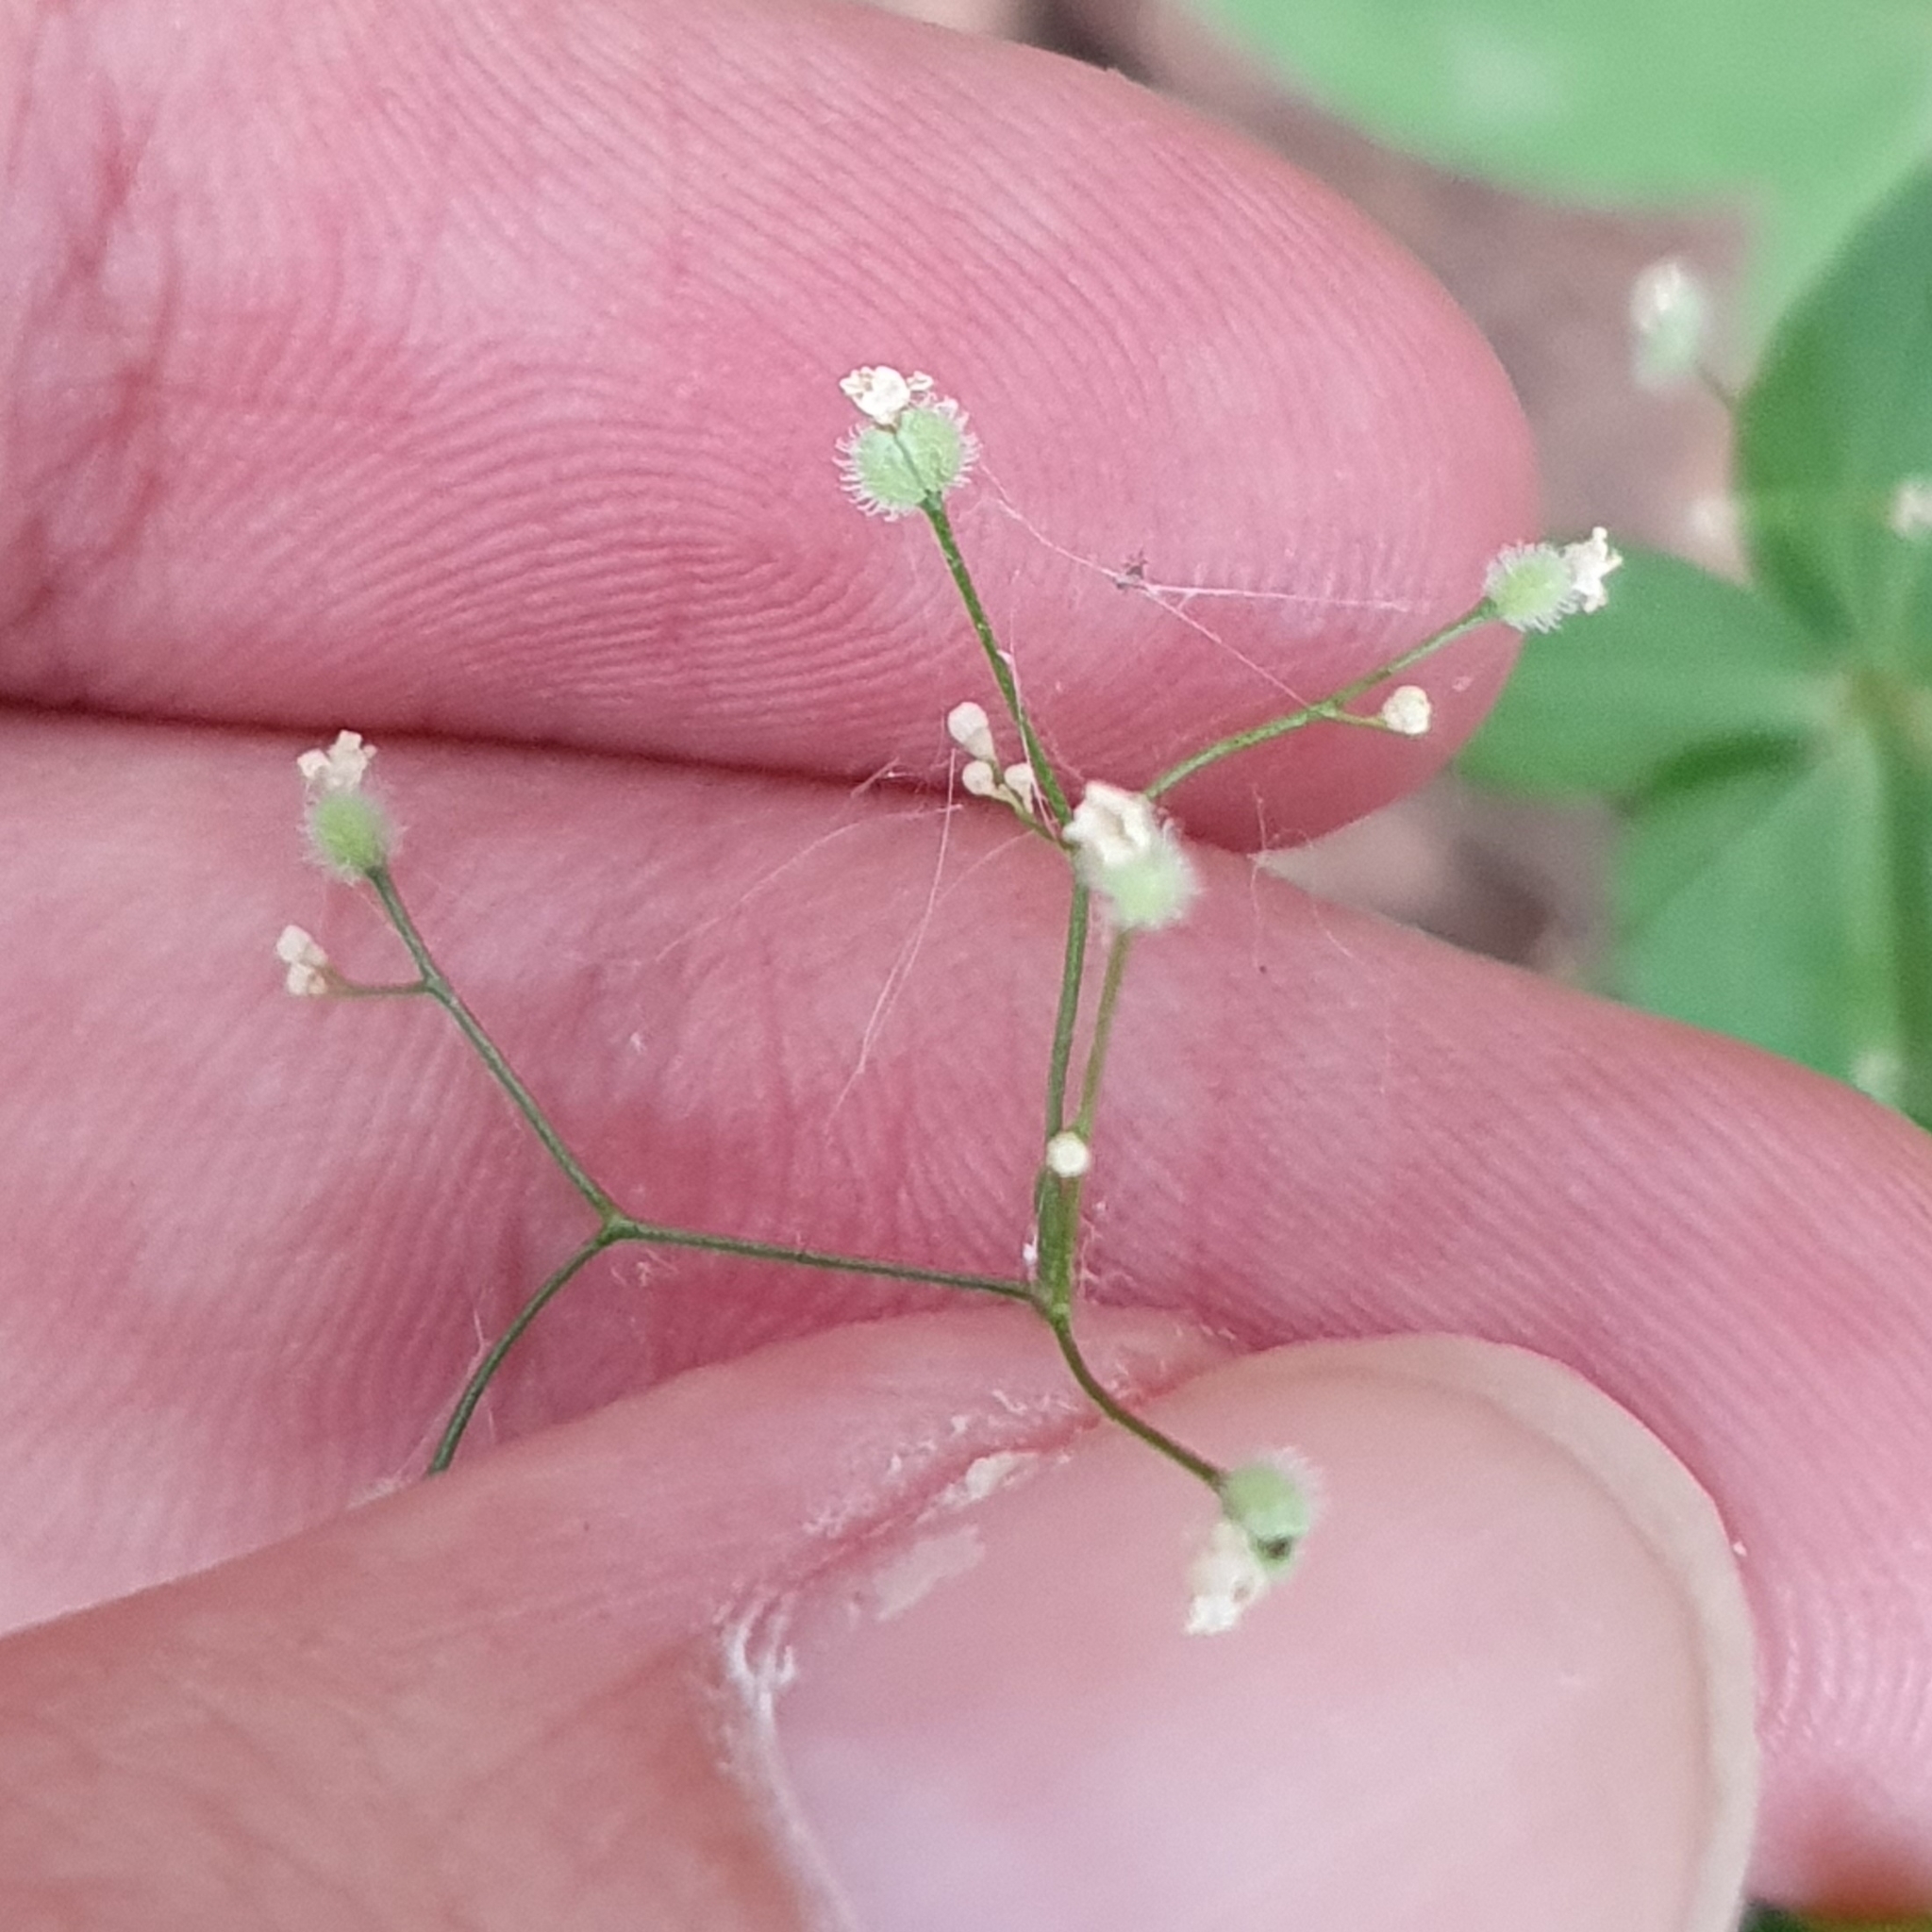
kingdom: Plantae
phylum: Tracheophyta
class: Magnoliopsida
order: Gentianales
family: Rubiaceae
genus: Galium
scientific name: Galium scabrum
